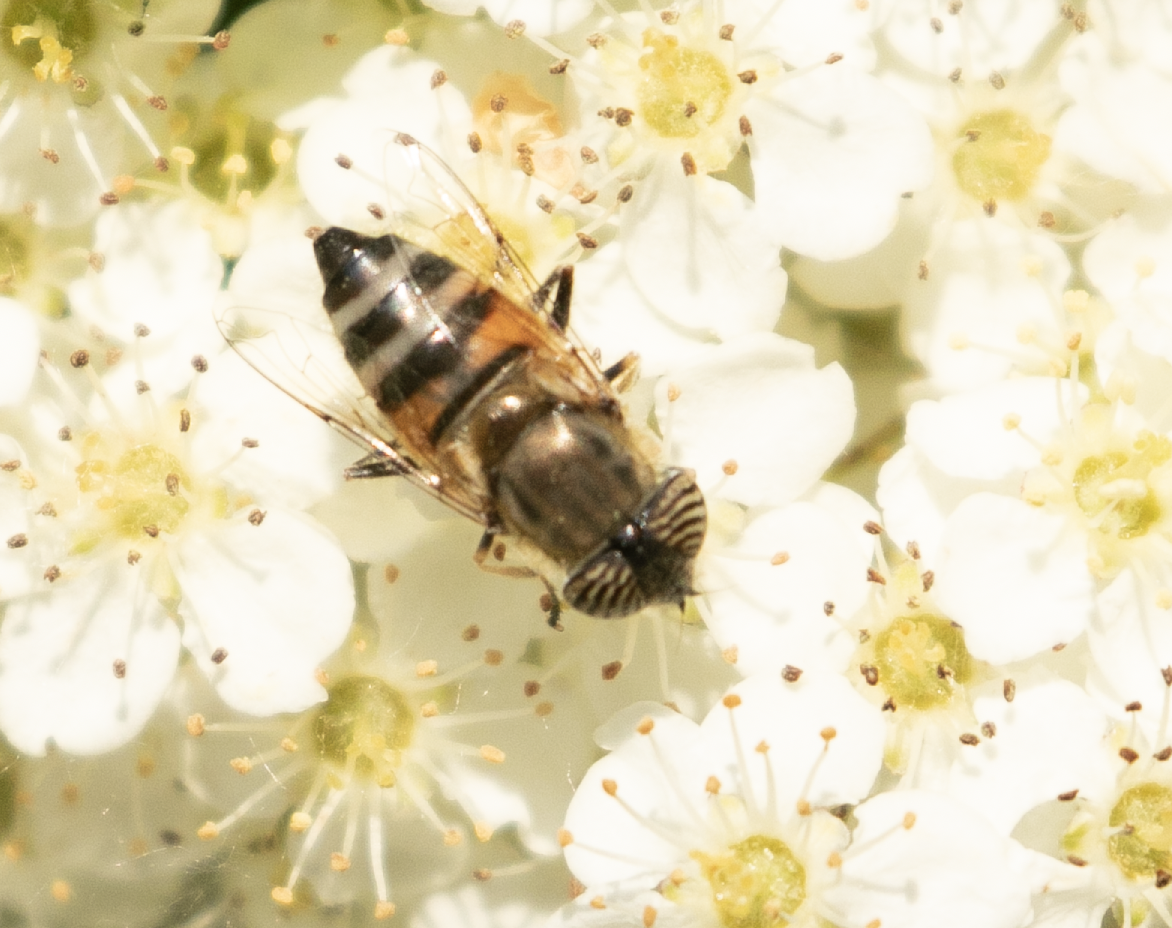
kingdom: Animalia
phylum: Arthropoda
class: Insecta
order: Diptera
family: Syrphidae
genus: Eristalinus
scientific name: Eristalinus taeniops
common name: Syrphid fly
